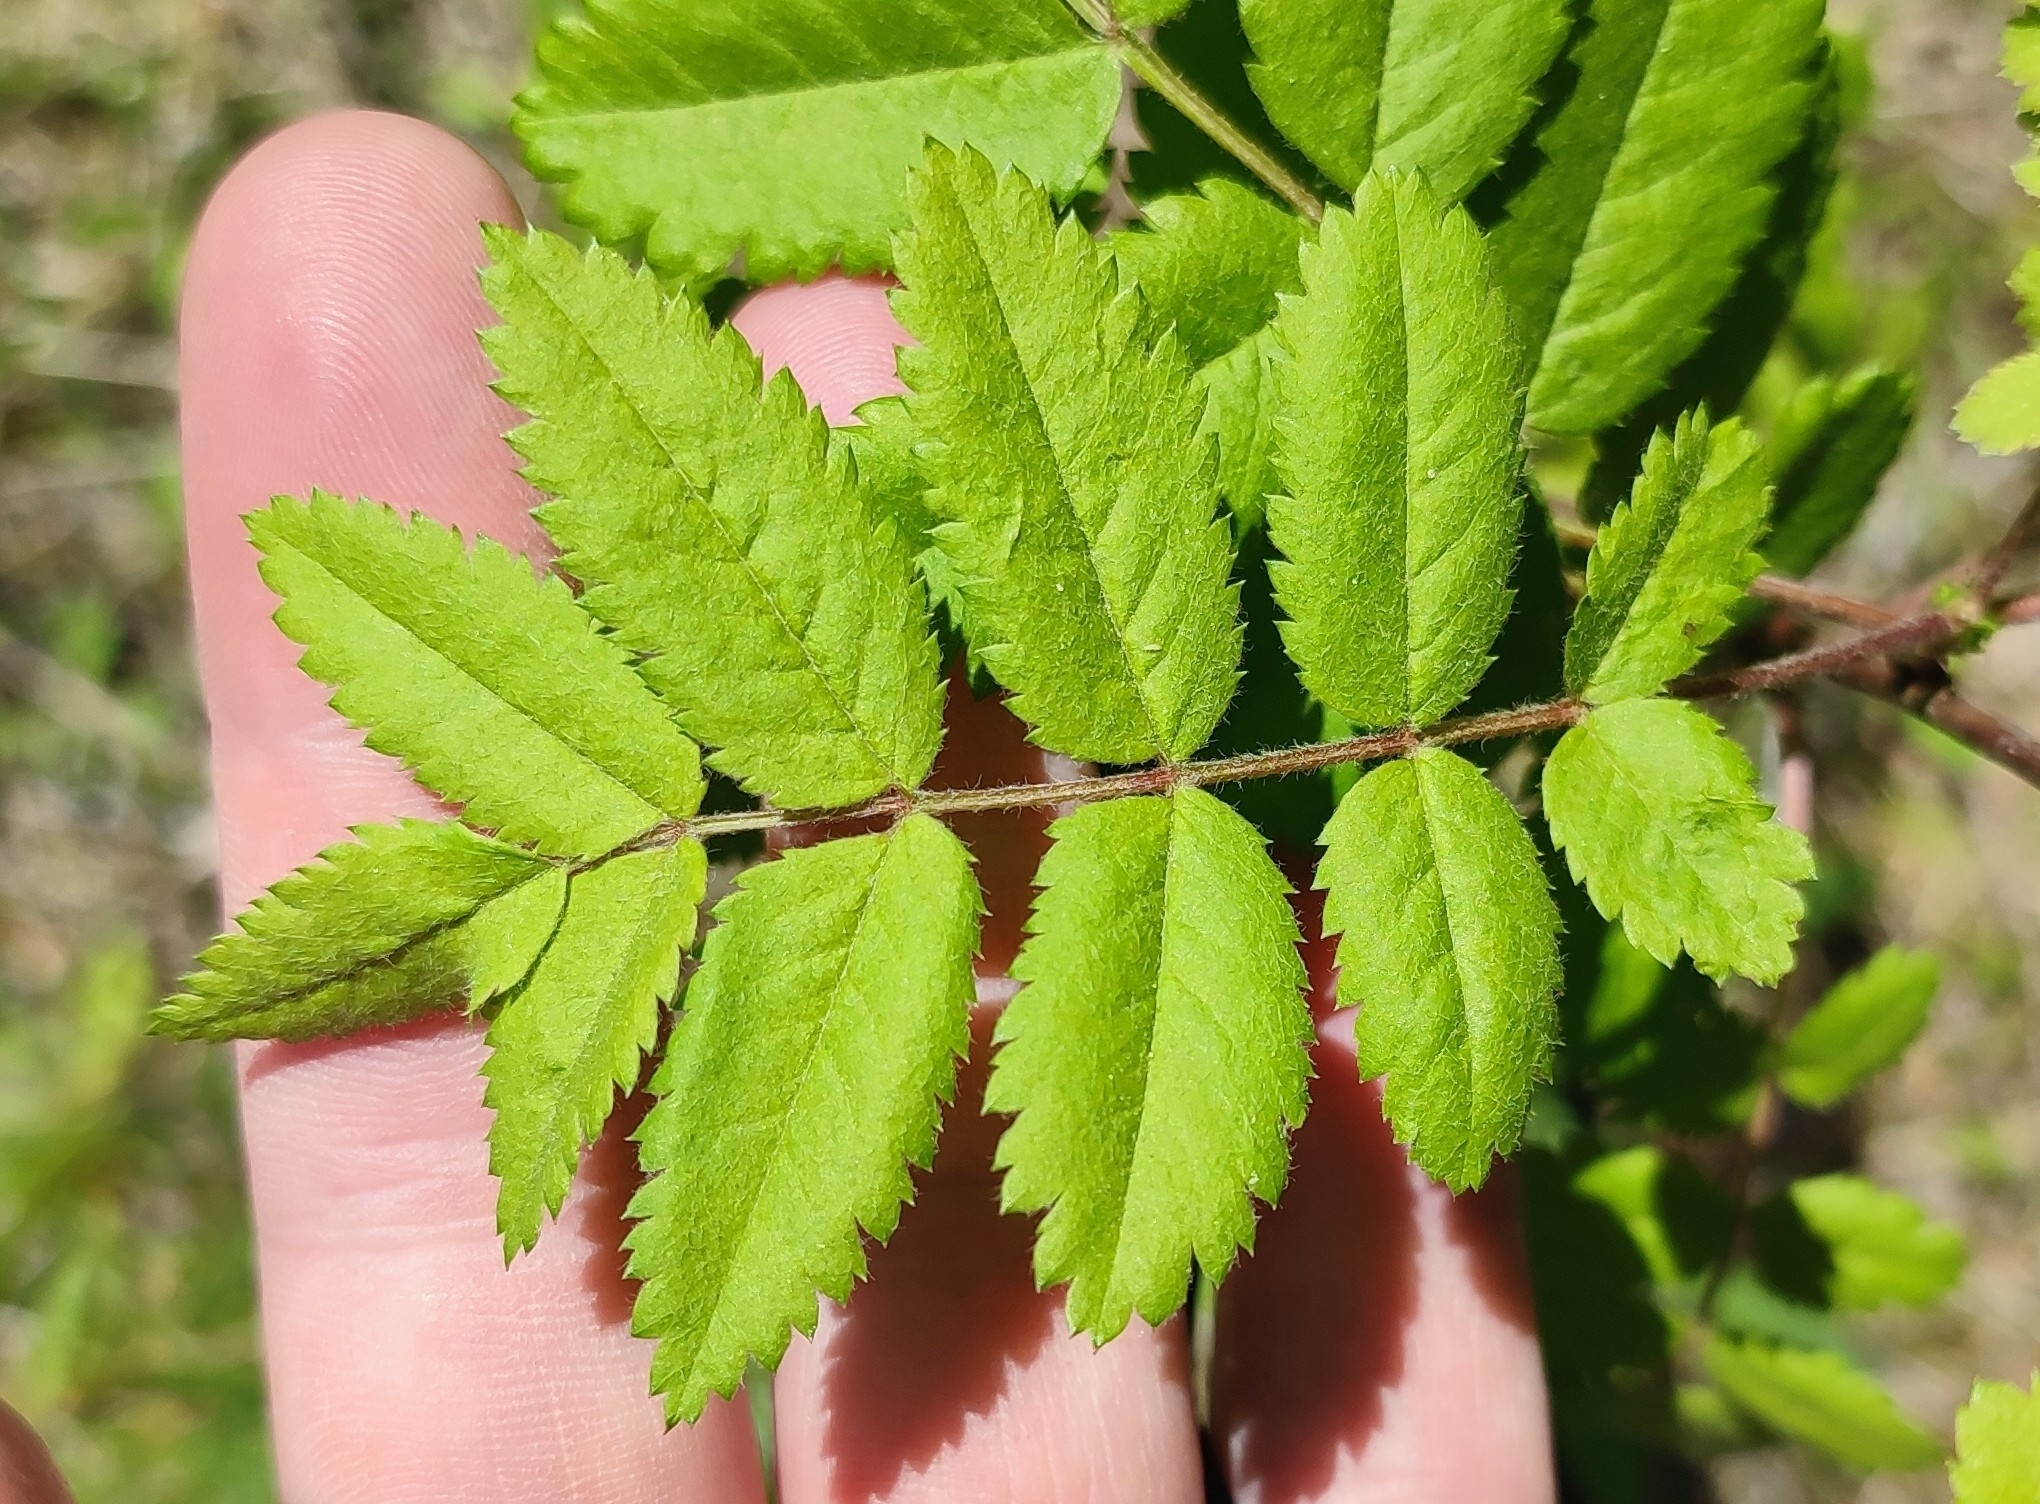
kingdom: Plantae
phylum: Tracheophyta
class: Magnoliopsida
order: Rosales
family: Rosaceae
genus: Sorbus
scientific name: Sorbus aucuparia
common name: Rowan
